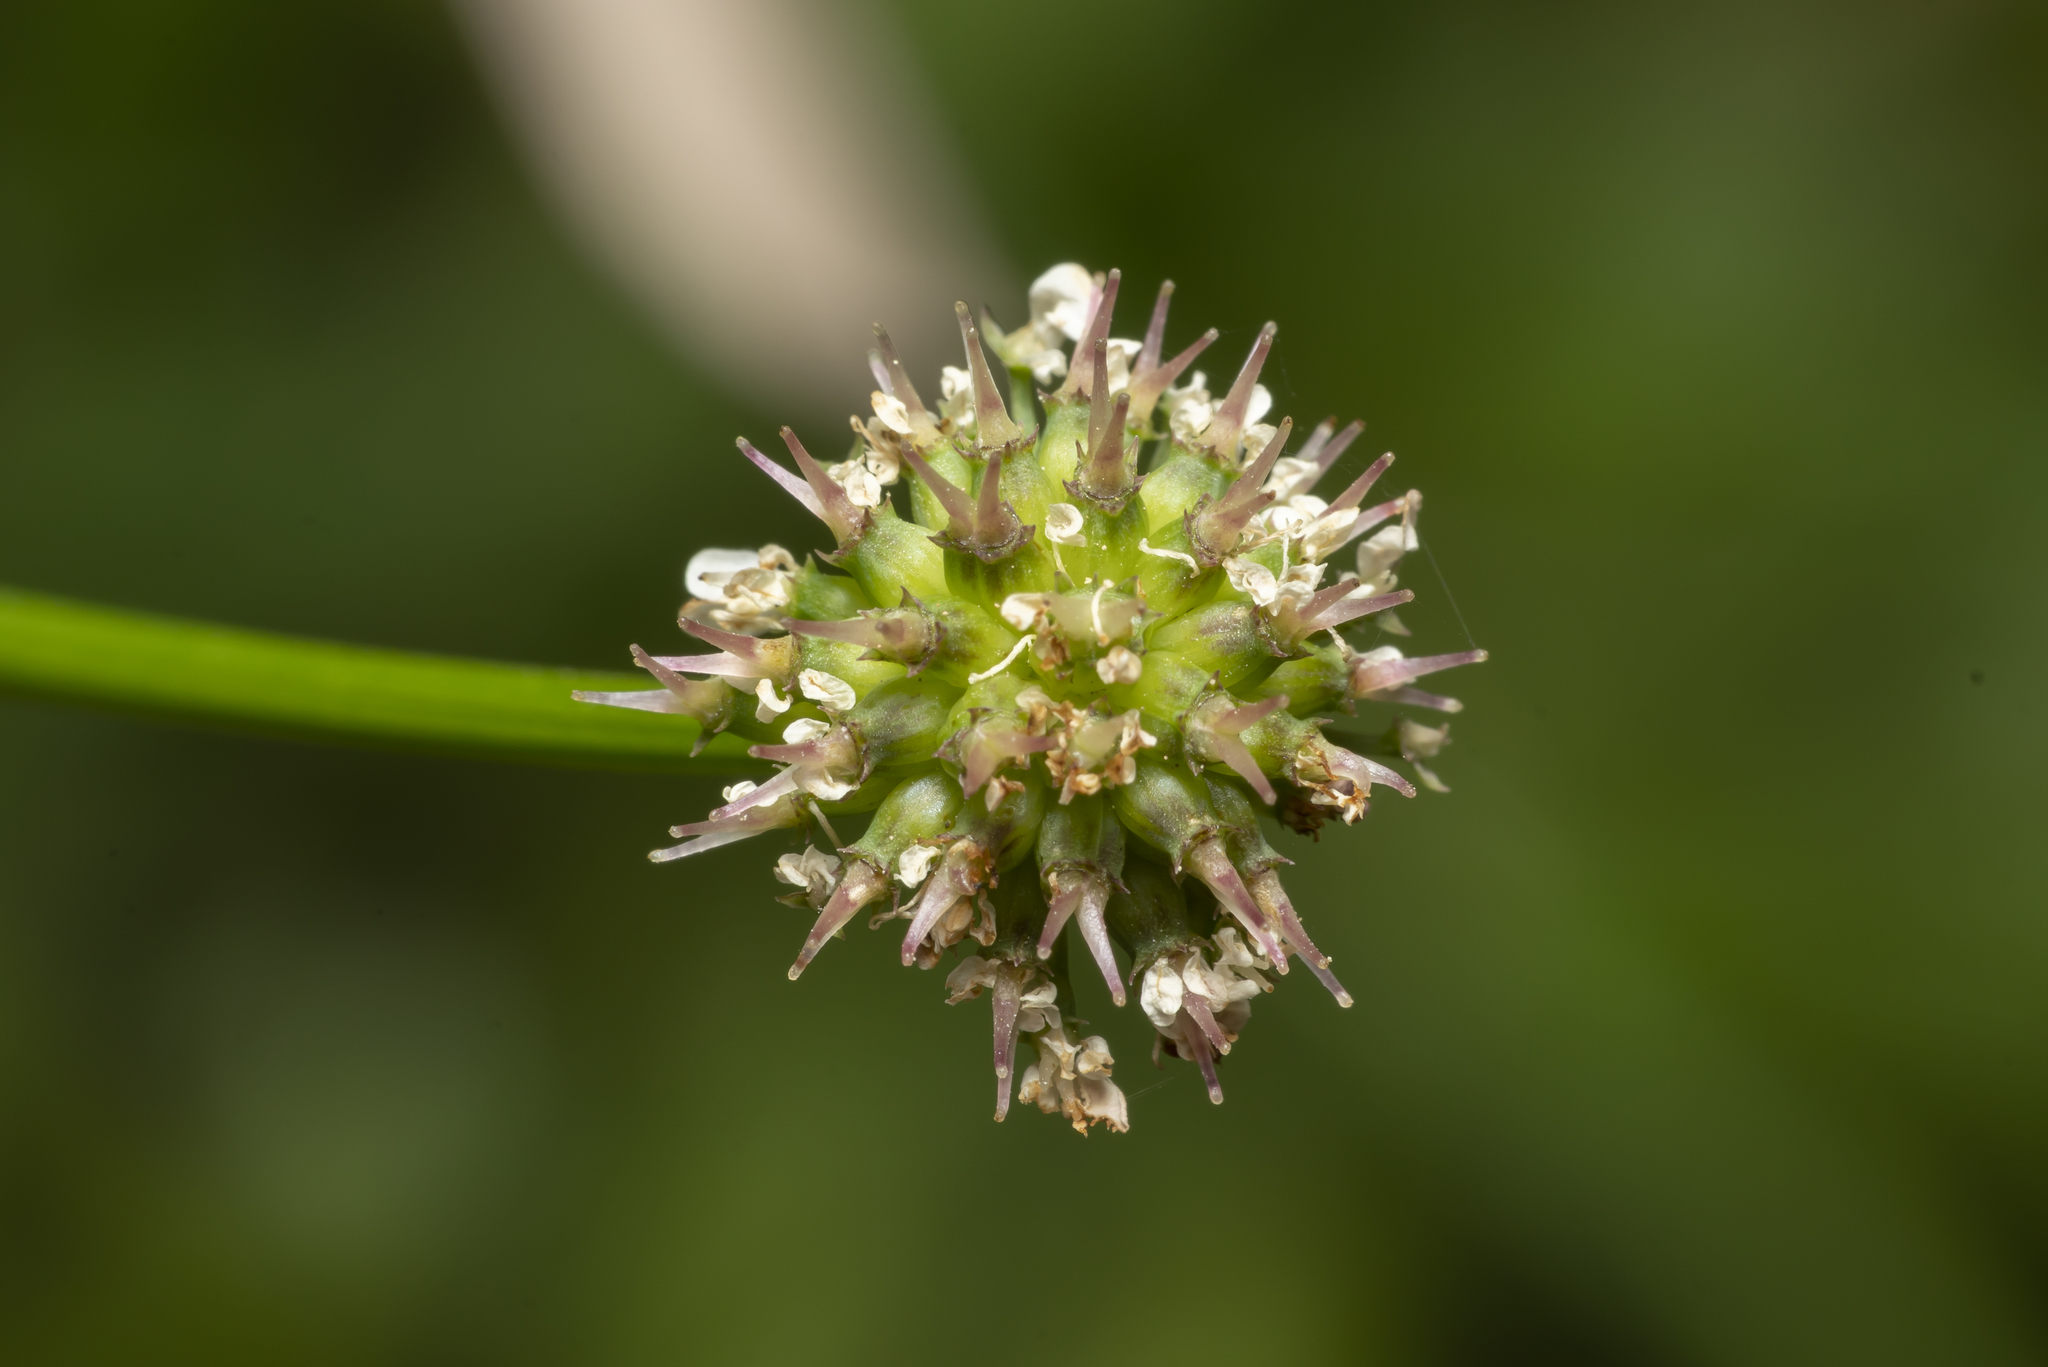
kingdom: Plantae
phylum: Tracheophyta
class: Magnoliopsida
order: Apiales
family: Apiaceae
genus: Oenanthe
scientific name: Oenanthe globulosa
